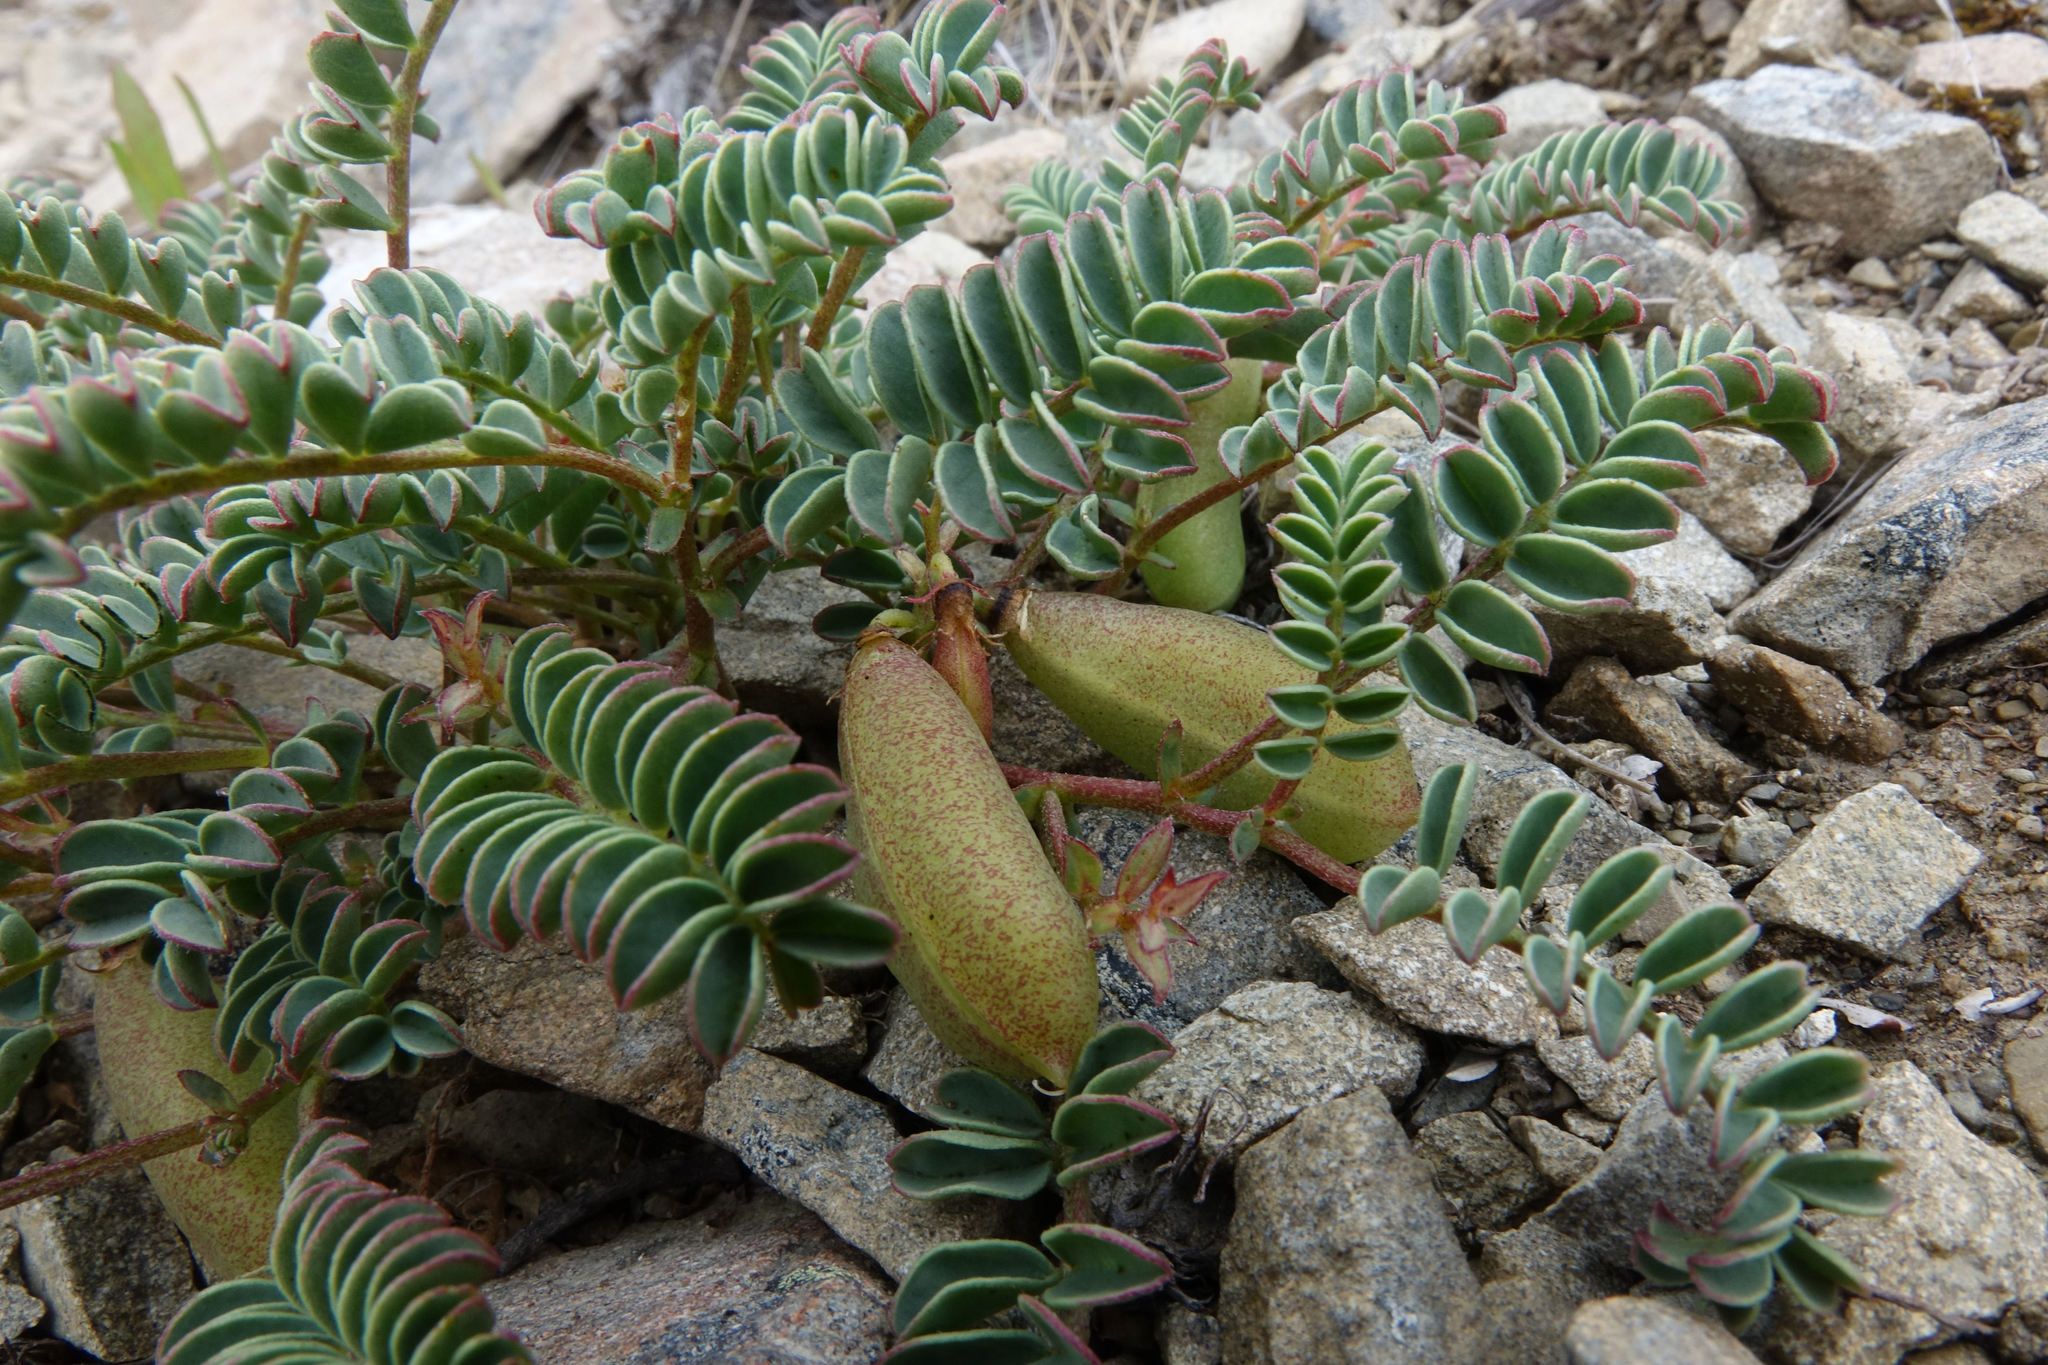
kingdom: Plantae
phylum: Tracheophyta
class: Magnoliopsida
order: Fabales
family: Fabaceae
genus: Montigena
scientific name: Montigena novae-zelandiae
